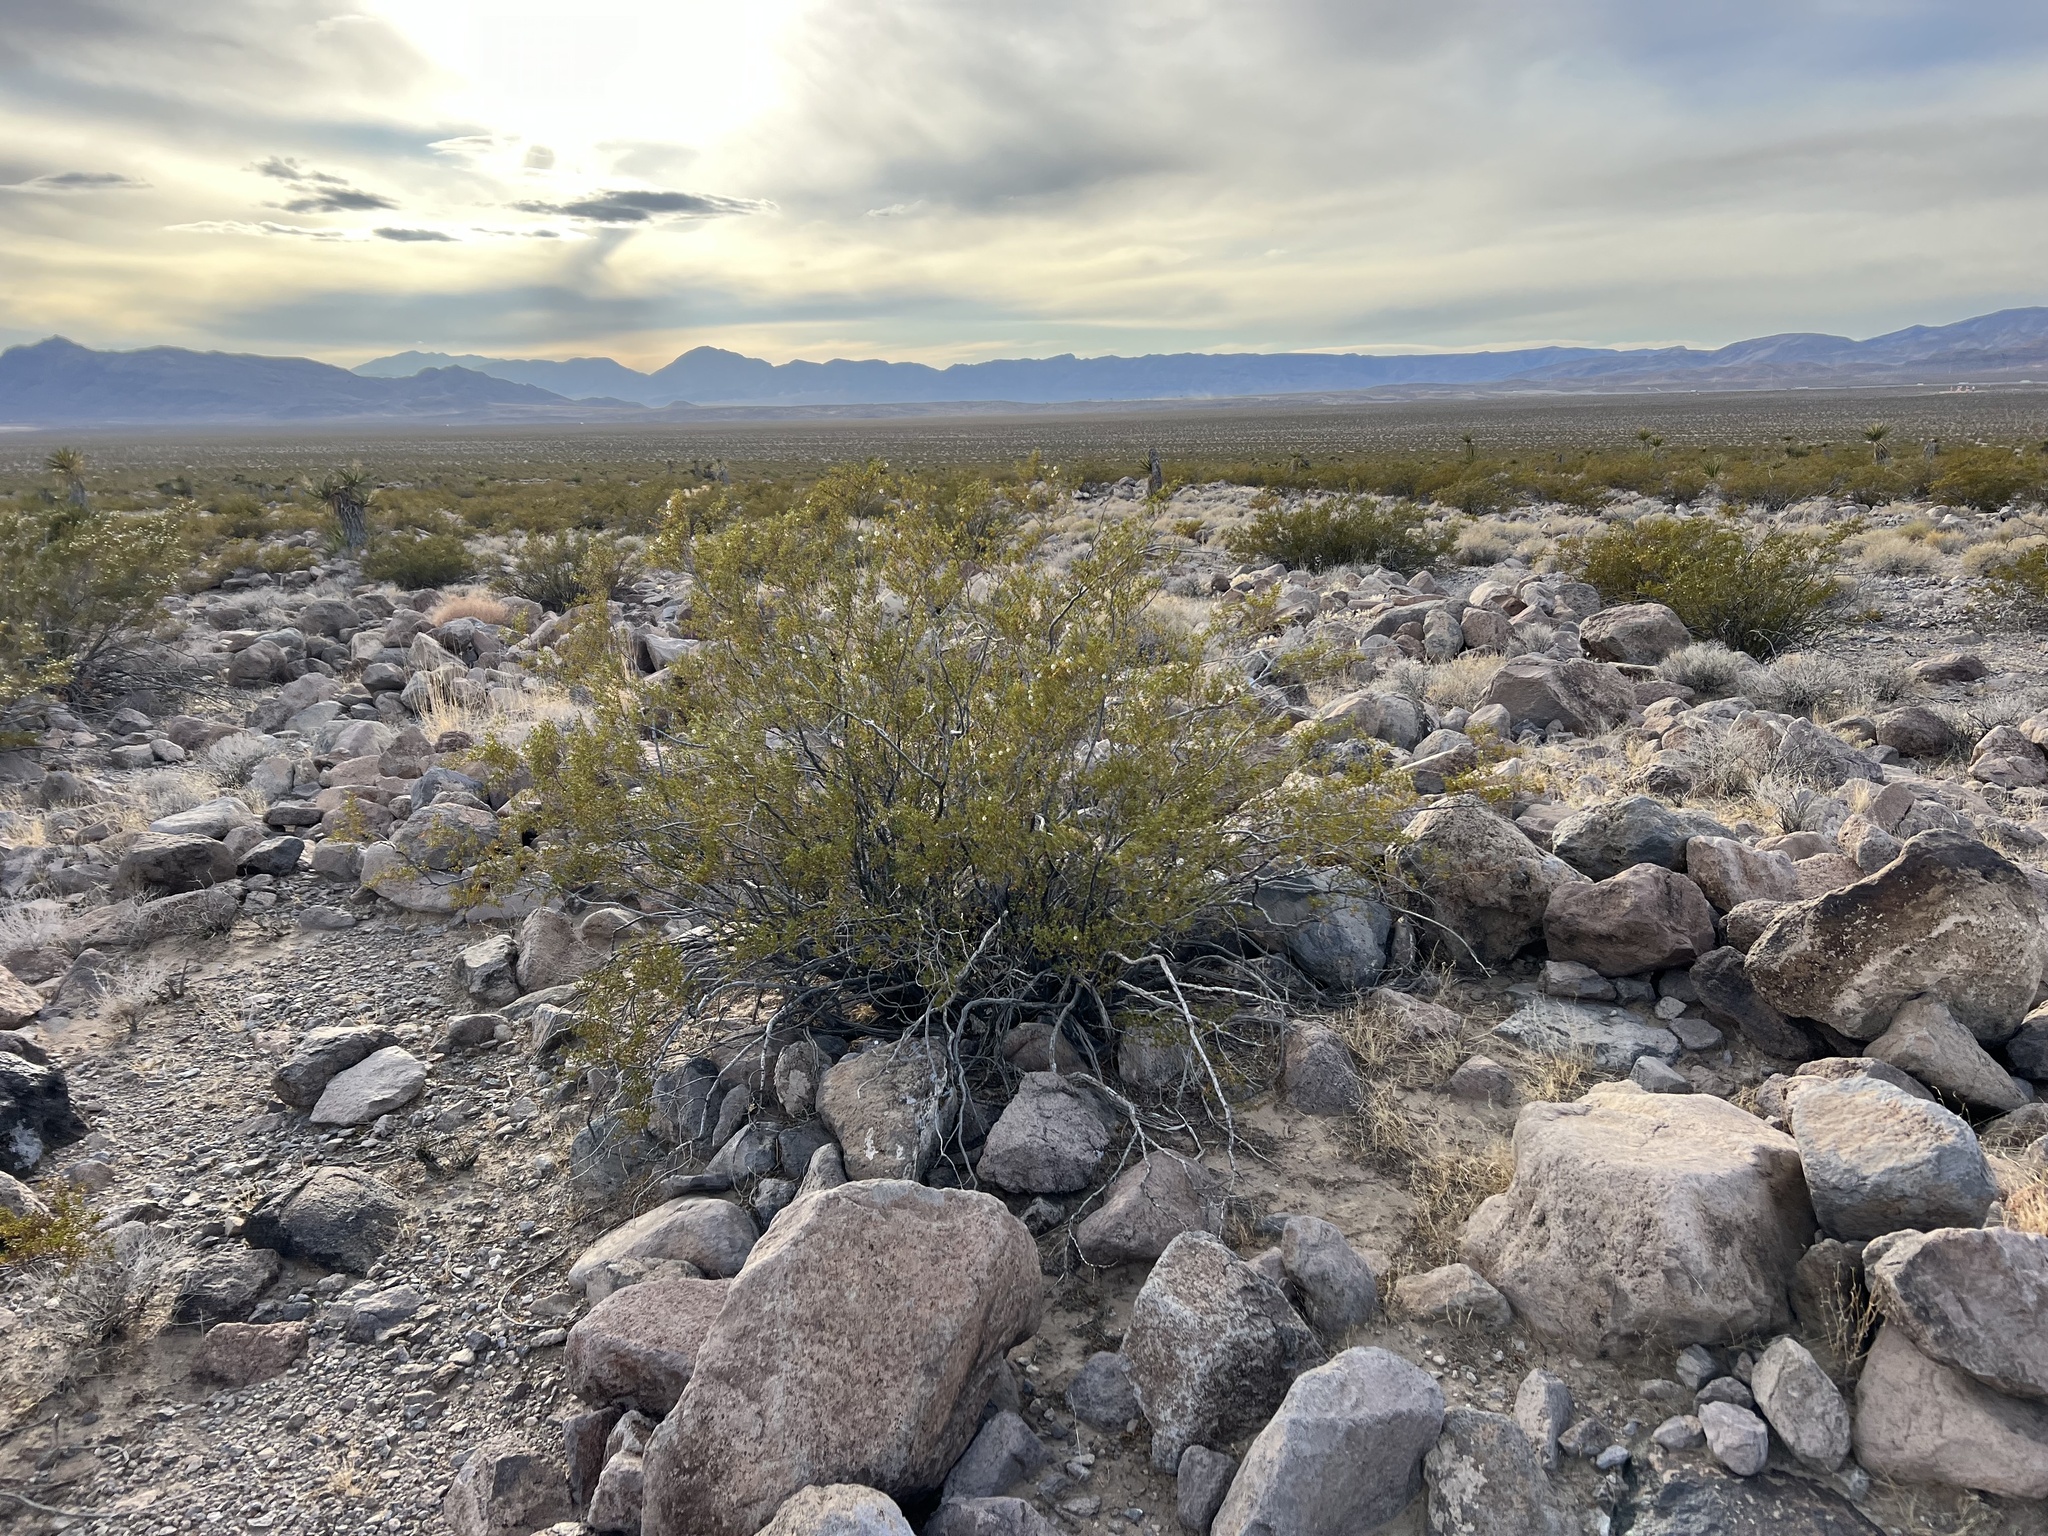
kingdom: Plantae
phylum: Tracheophyta
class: Magnoliopsida
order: Zygophyllales
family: Zygophyllaceae
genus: Larrea
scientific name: Larrea tridentata
